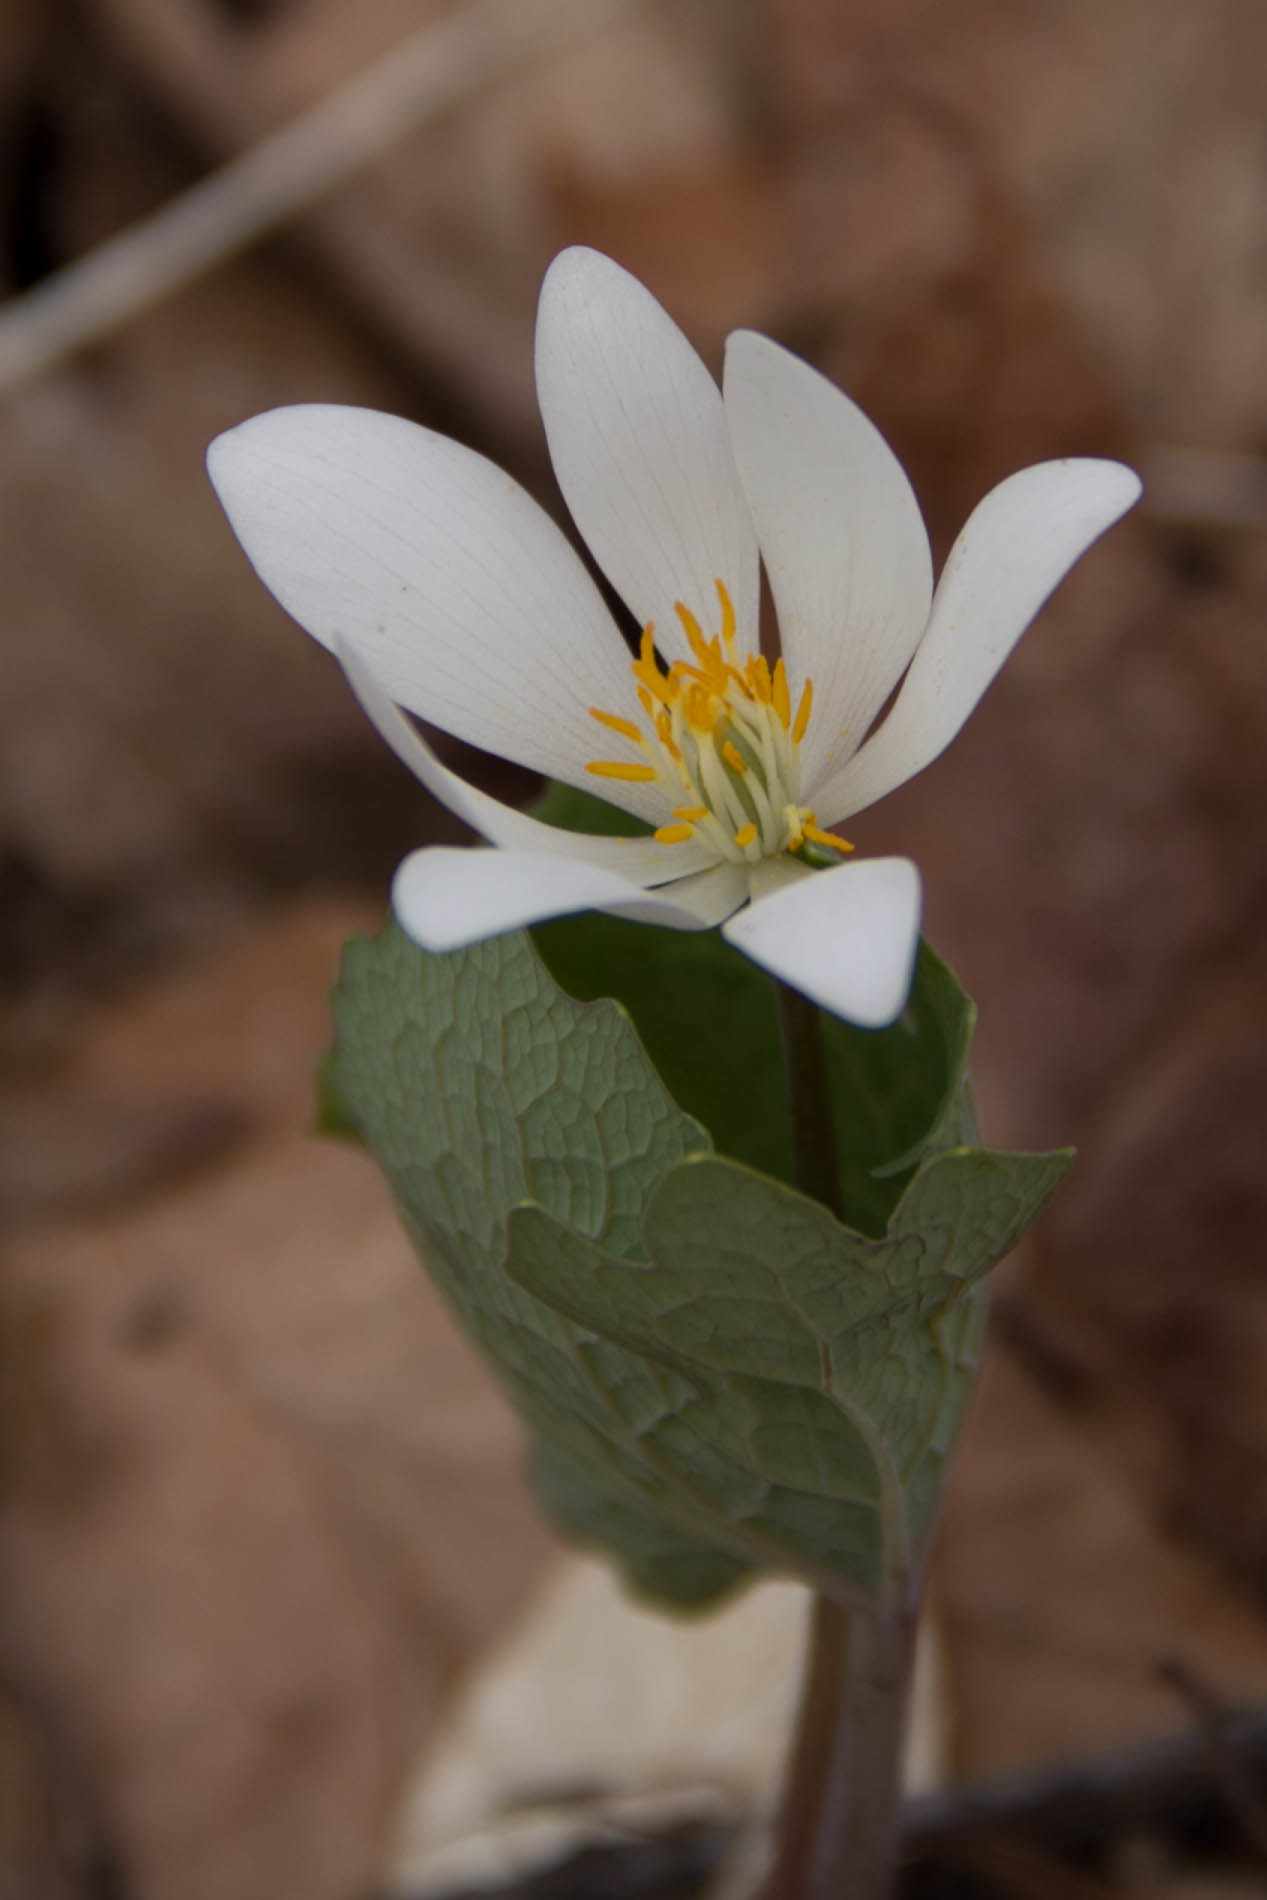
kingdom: Plantae
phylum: Tracheophyta
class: Magnoliopsida
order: Ranunculales
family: Papaveraceae
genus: Sanguinaria
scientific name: Sanguinaria canadensis
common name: Bloodroot
